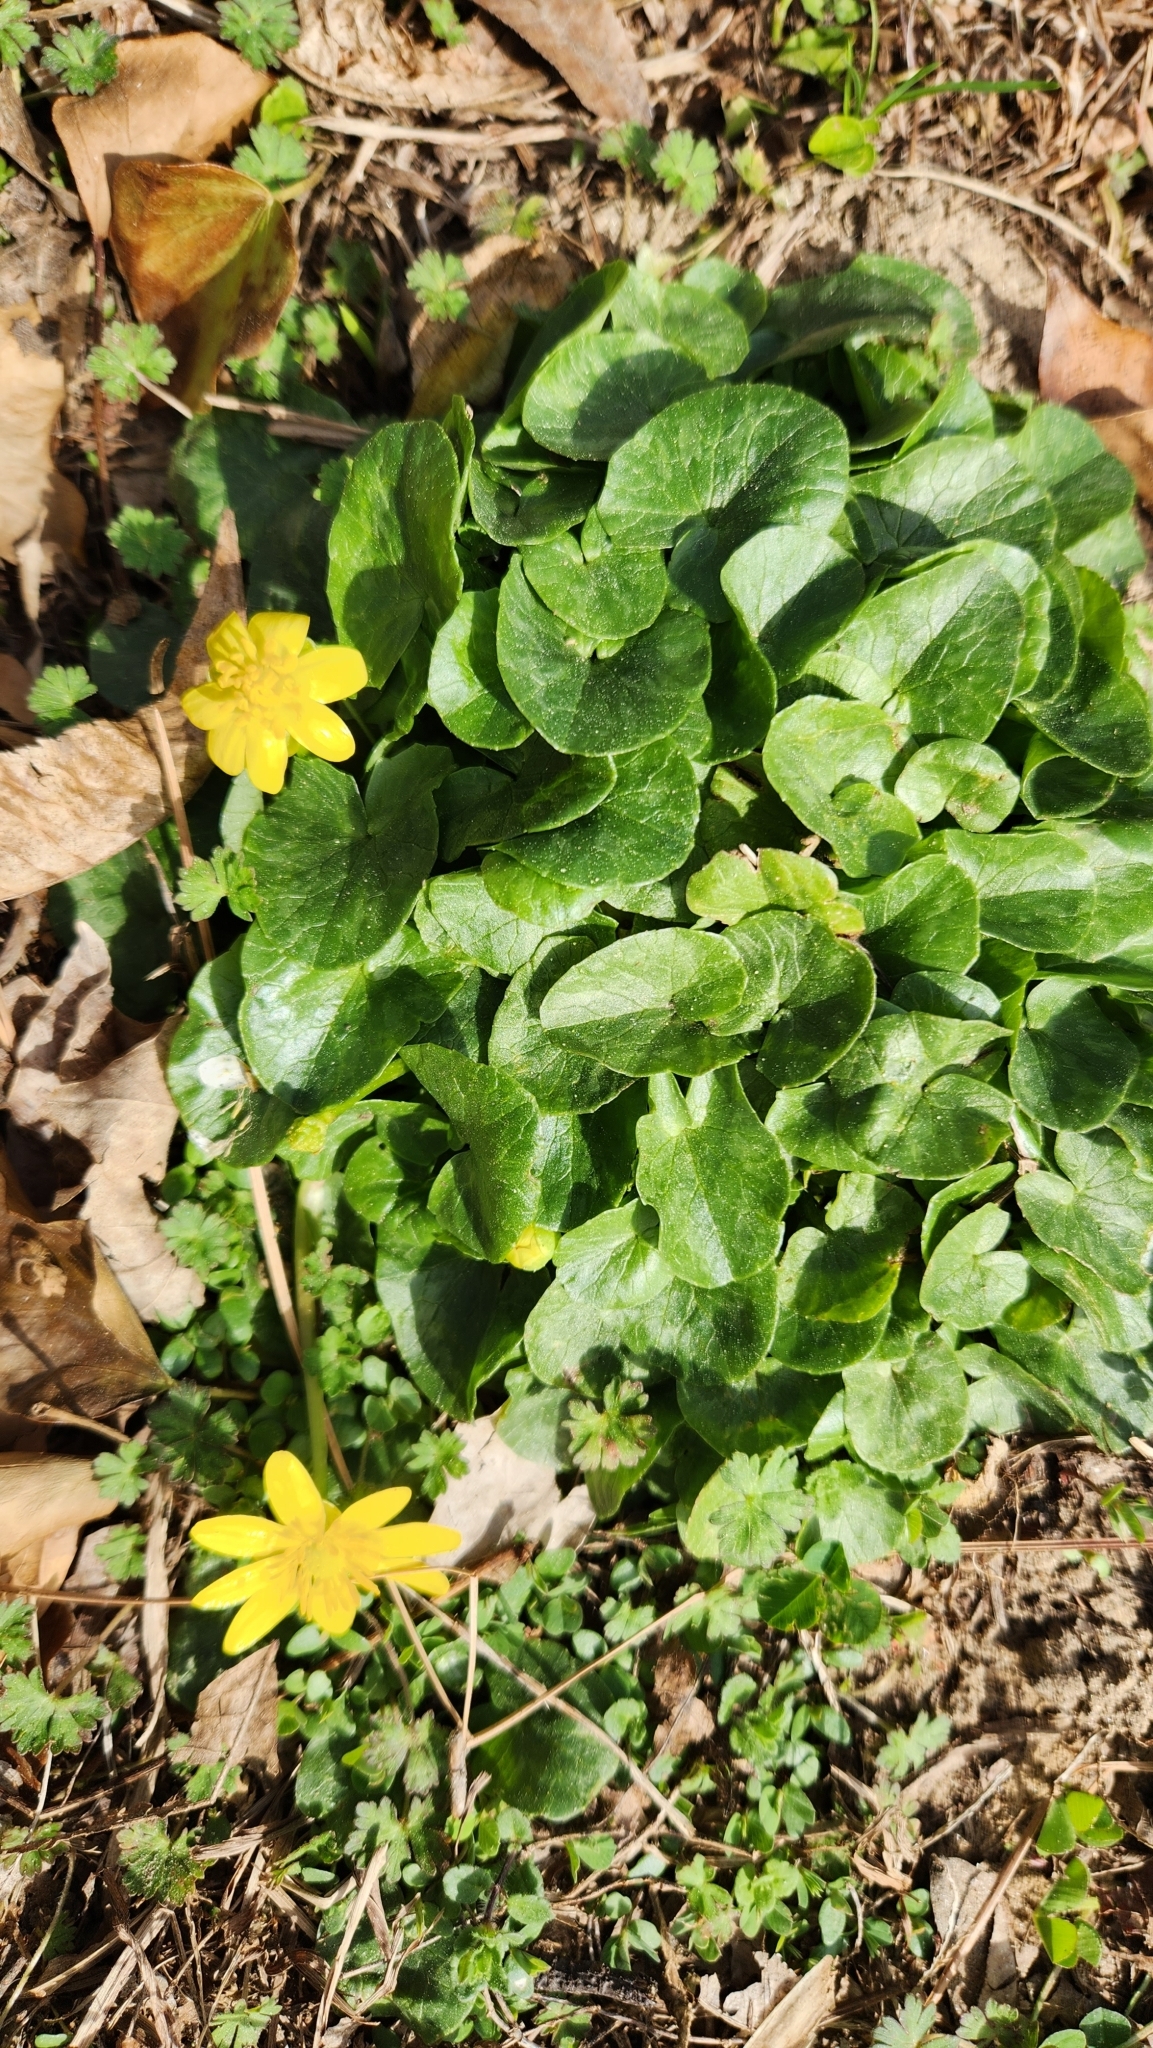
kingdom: Plantae
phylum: Tracheophyta
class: Magnoliopsida
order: Ranunculales
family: Ranunculaceae
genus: Ficaria
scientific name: Ficaria verna
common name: Lesser celandine
